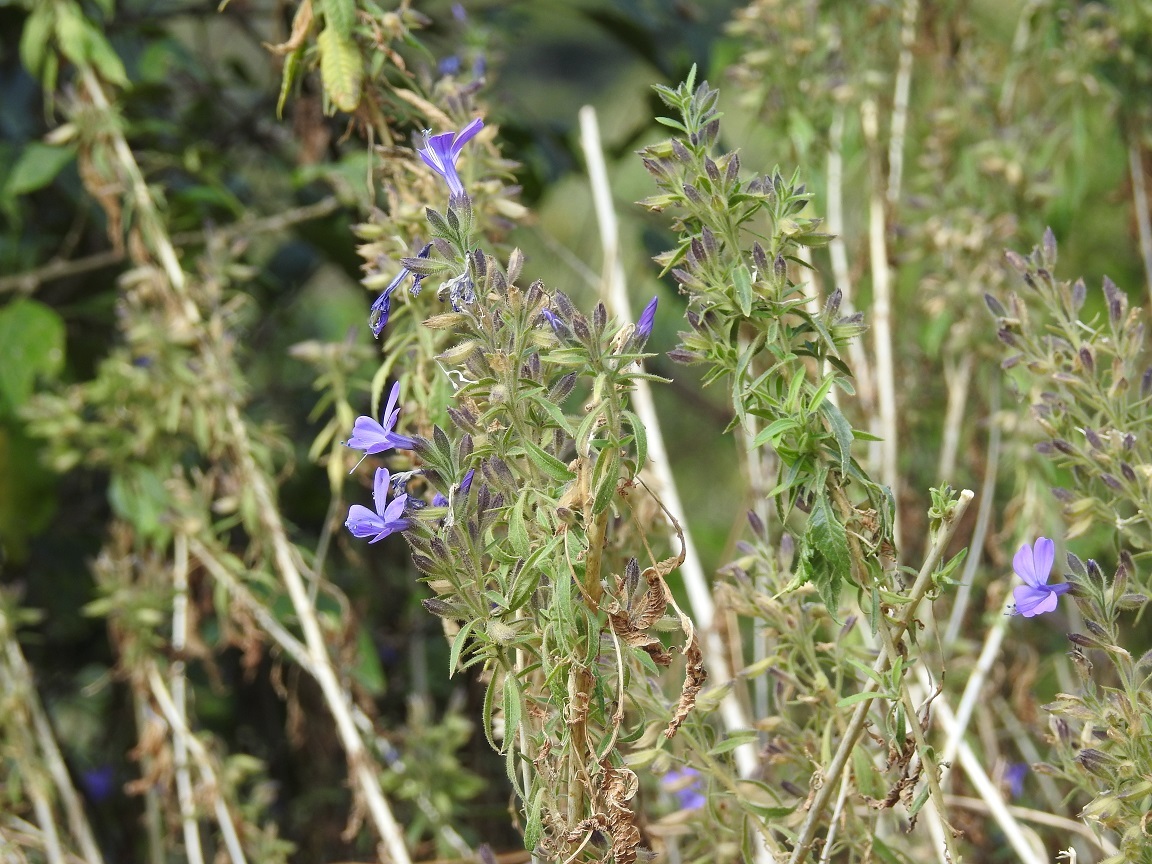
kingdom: Plantae
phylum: Tracheophyta
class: Magnoliopsida
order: Ericales
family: Polemoniaceae
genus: Bonplandia
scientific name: Bonplandia geminiflora
